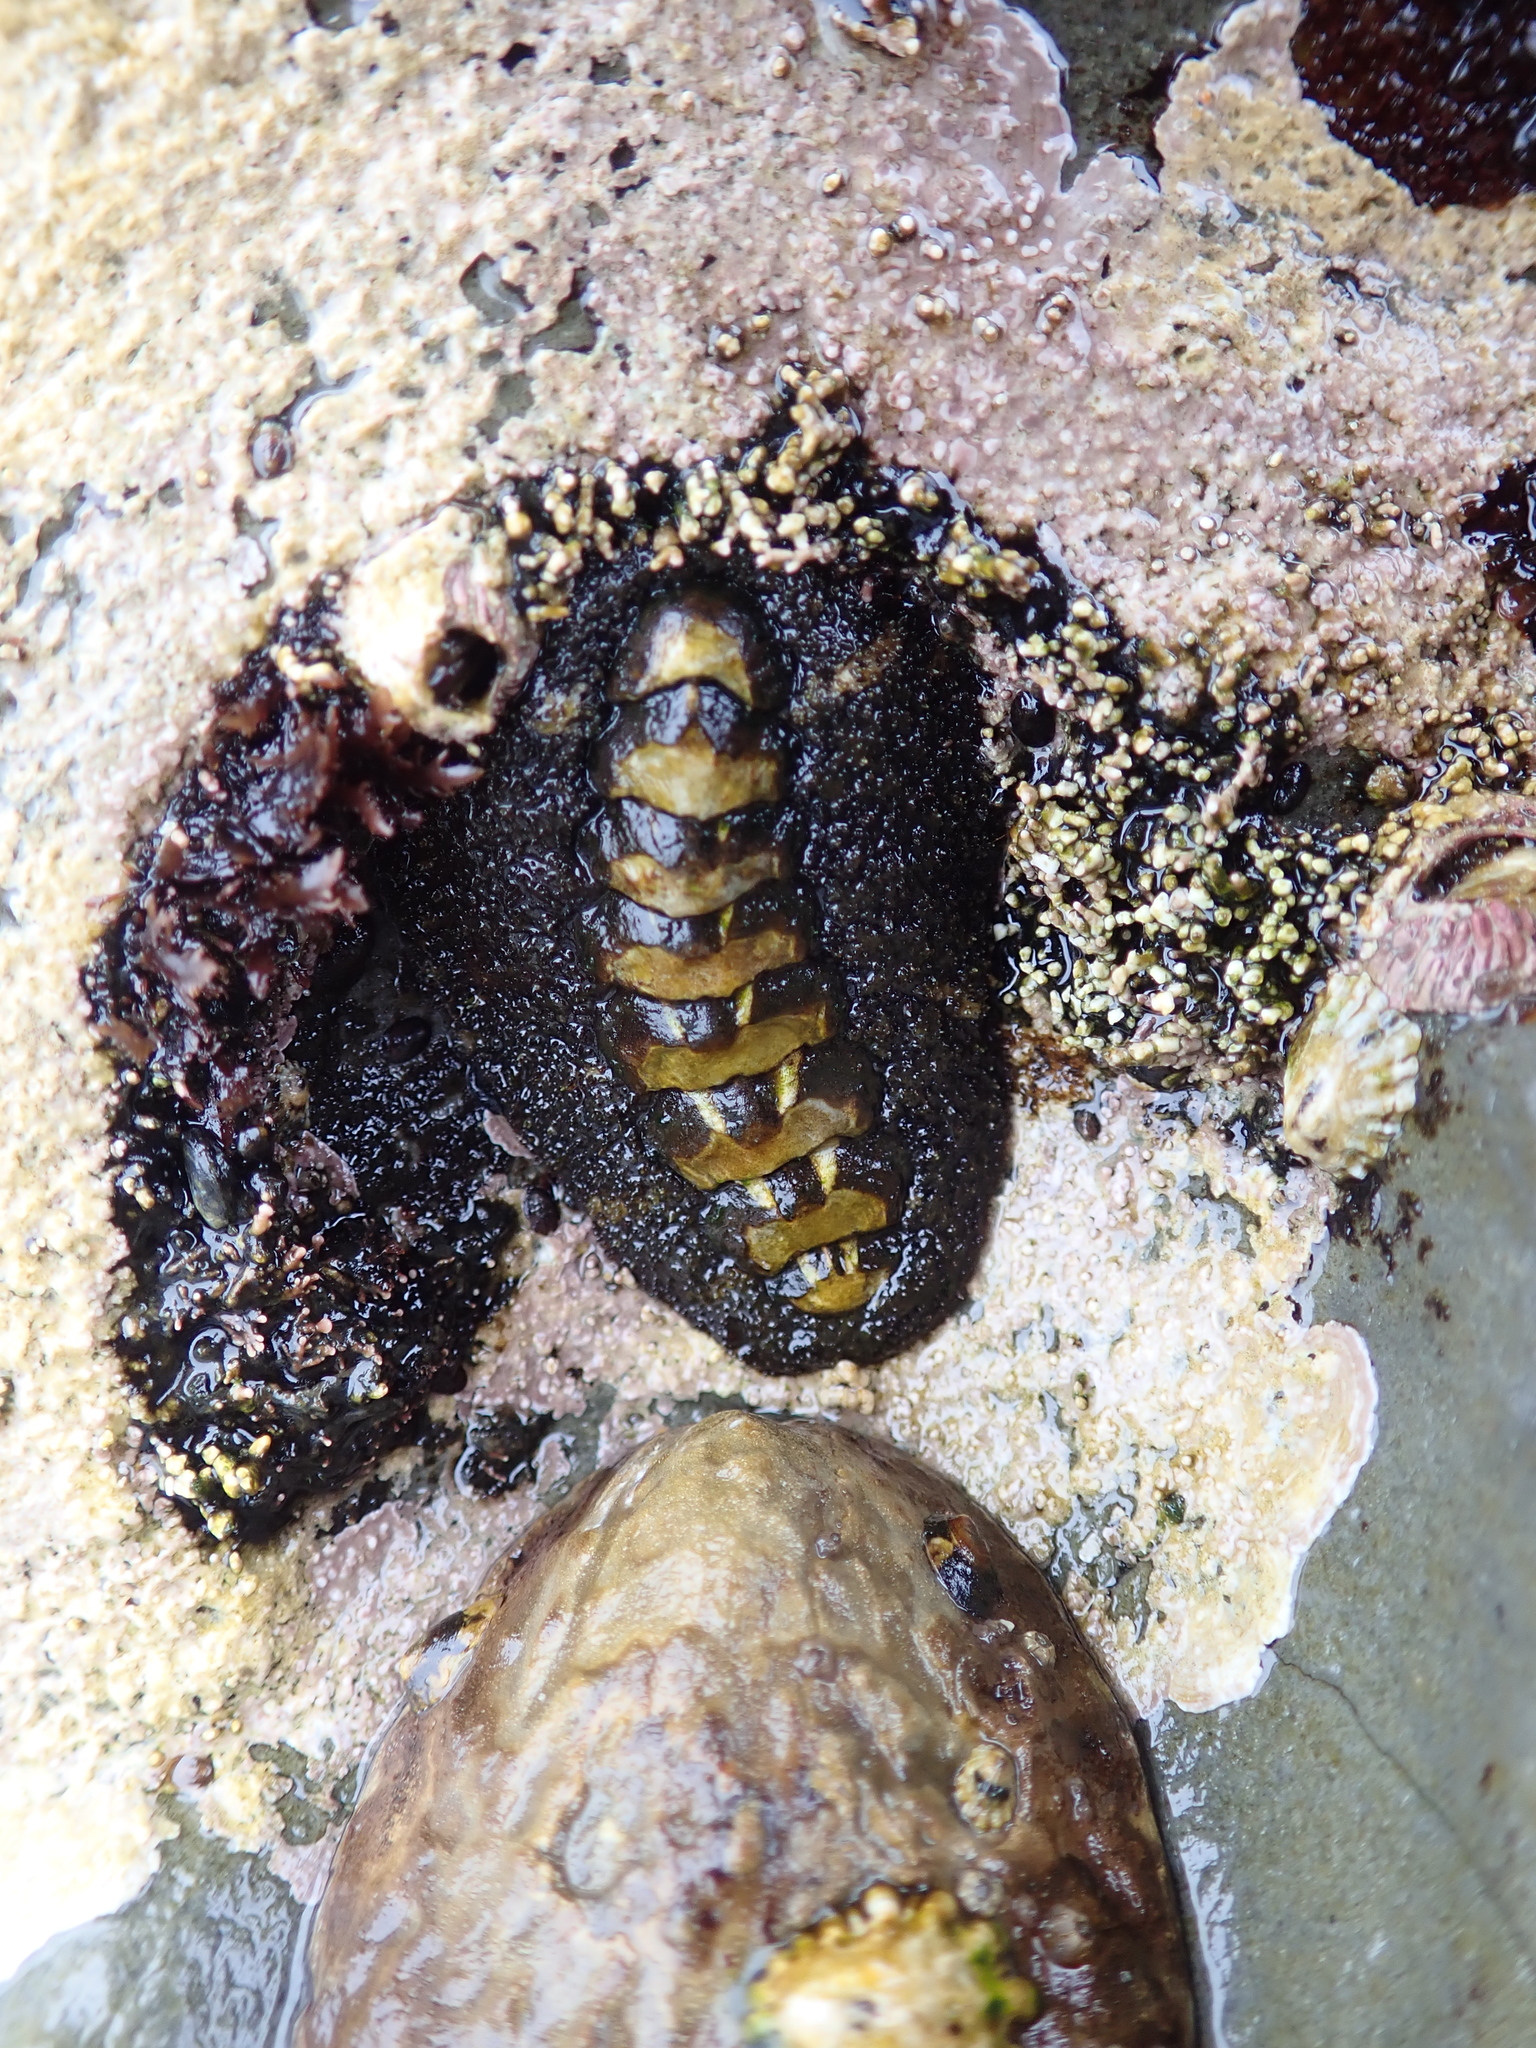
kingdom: Animalia
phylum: Mollusca
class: Polyplacophora
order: Chitonida
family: Tonicellidae
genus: Nuttallina
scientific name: Nuttallina californica
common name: California nuttall chiton
